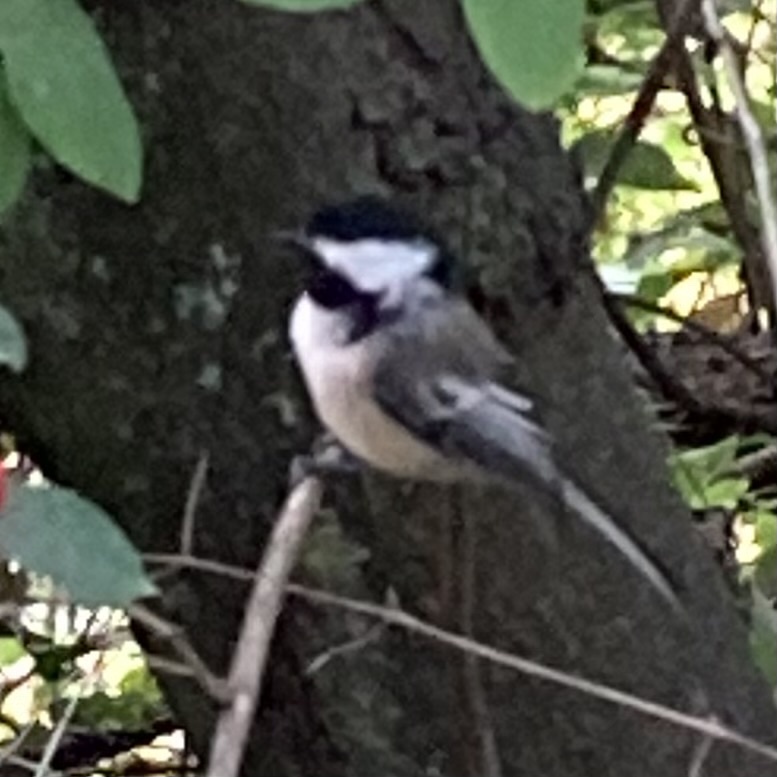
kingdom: Animalia
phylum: Chordata
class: Aves
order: Passeriformes
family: Paridae
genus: Poecile
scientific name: Poecile atricapillus
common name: Black-capped chickadee
